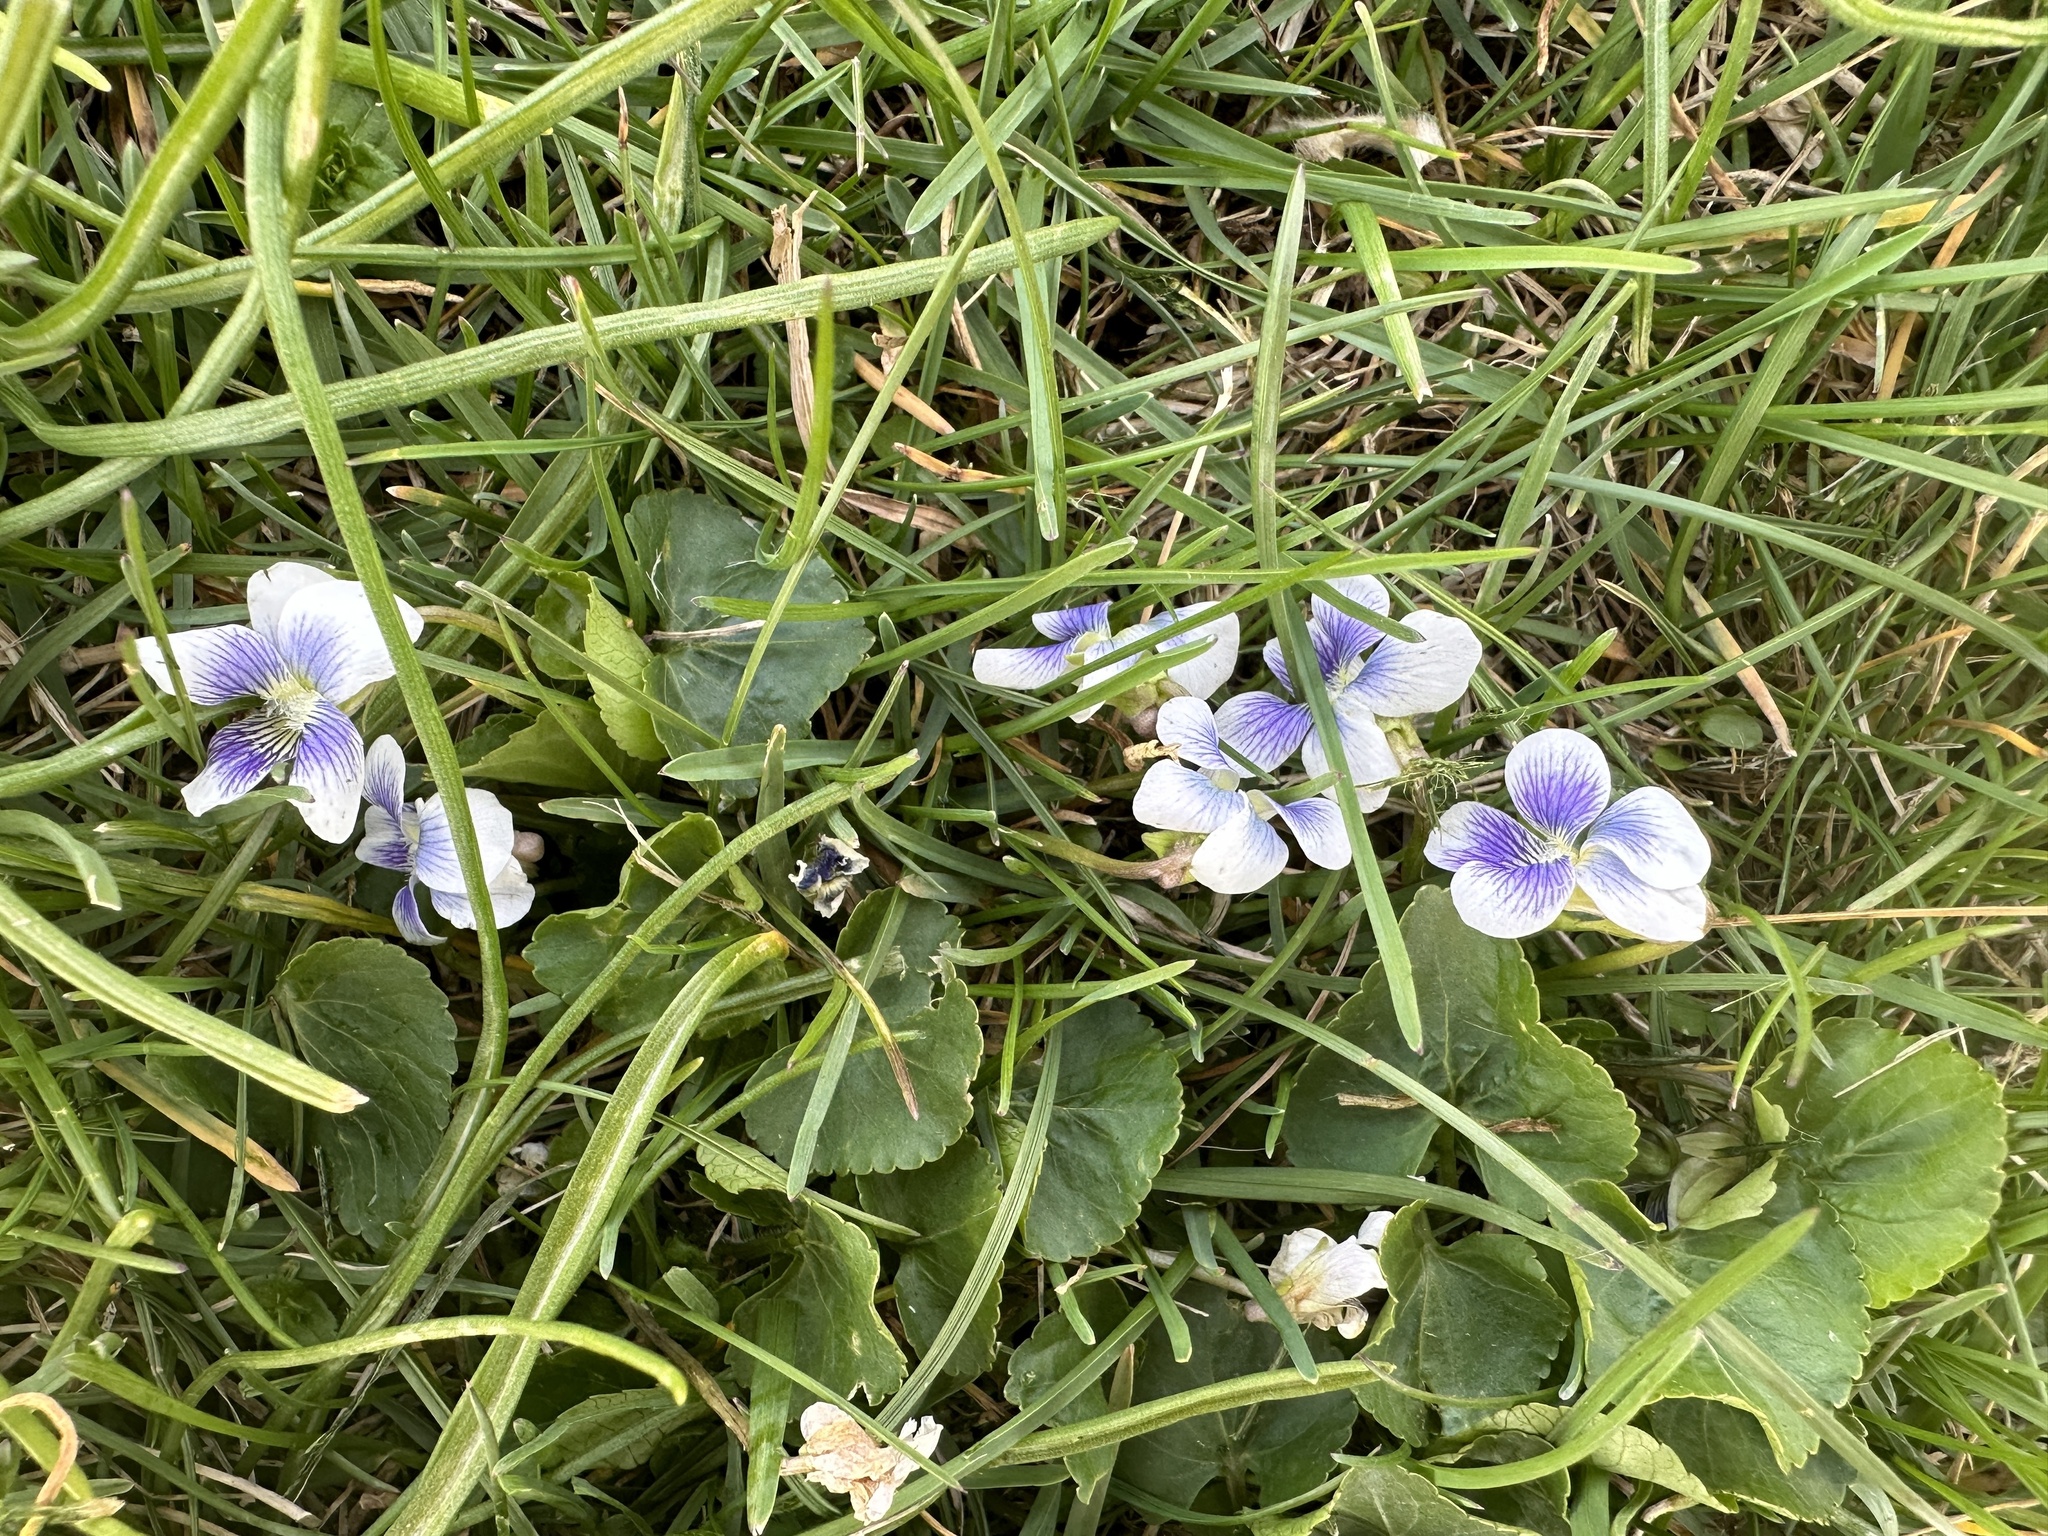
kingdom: Plantae
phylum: Tracheophyta
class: Magnoliopsida
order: Malpighiales
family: Violaceae
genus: Viola
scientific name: Viola sororia
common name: Dooryard violet
